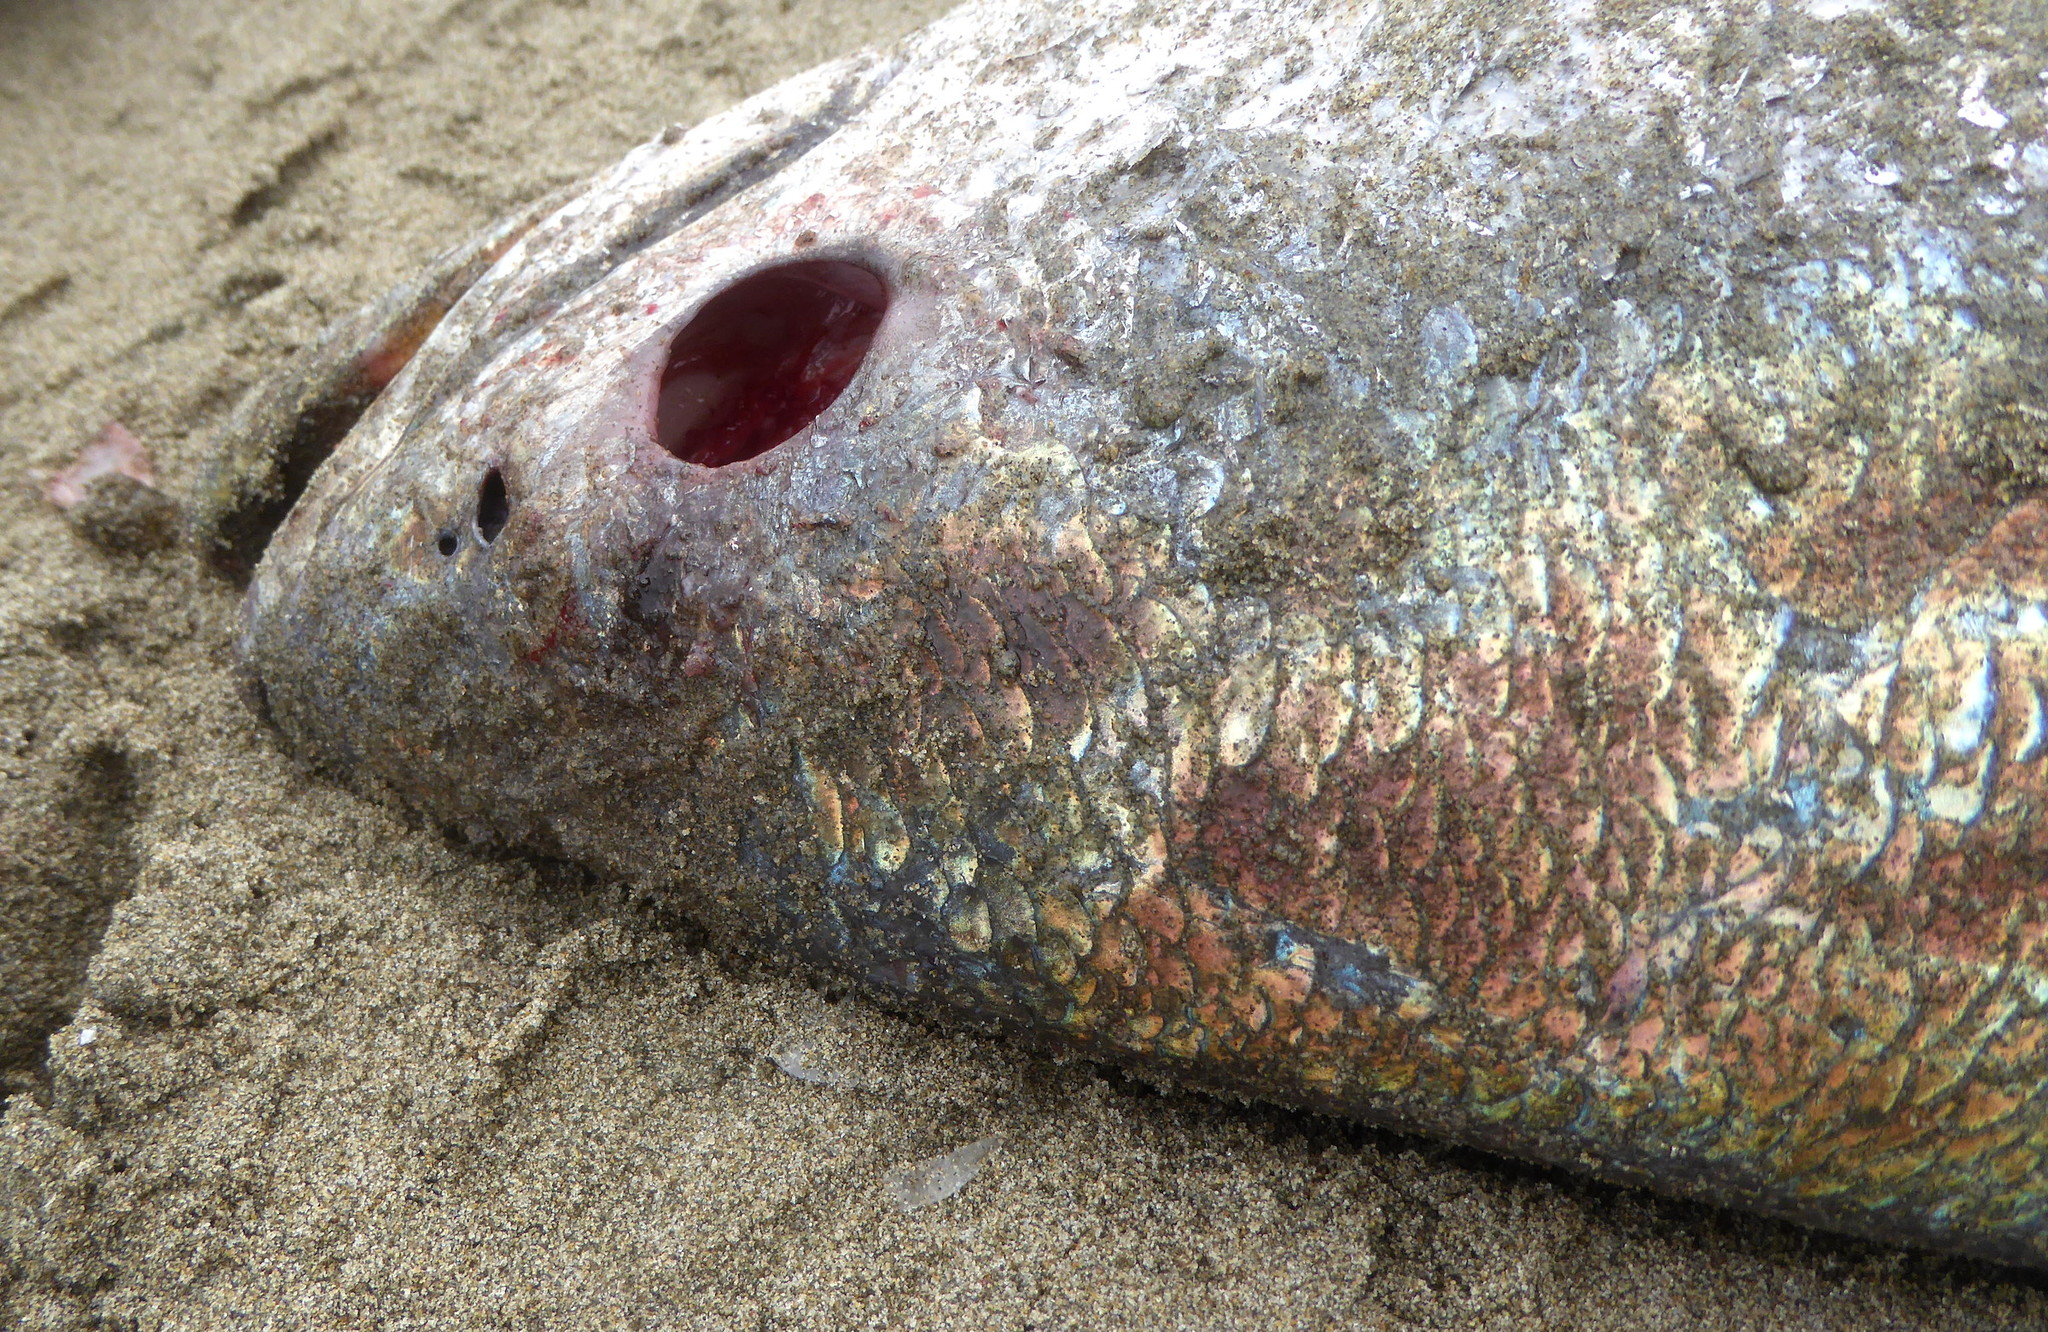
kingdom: Animalia
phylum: Chordata
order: Perciformes
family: Sciaenidae
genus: Atractoscion
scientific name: Atractoscion nobilis
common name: White seabass
